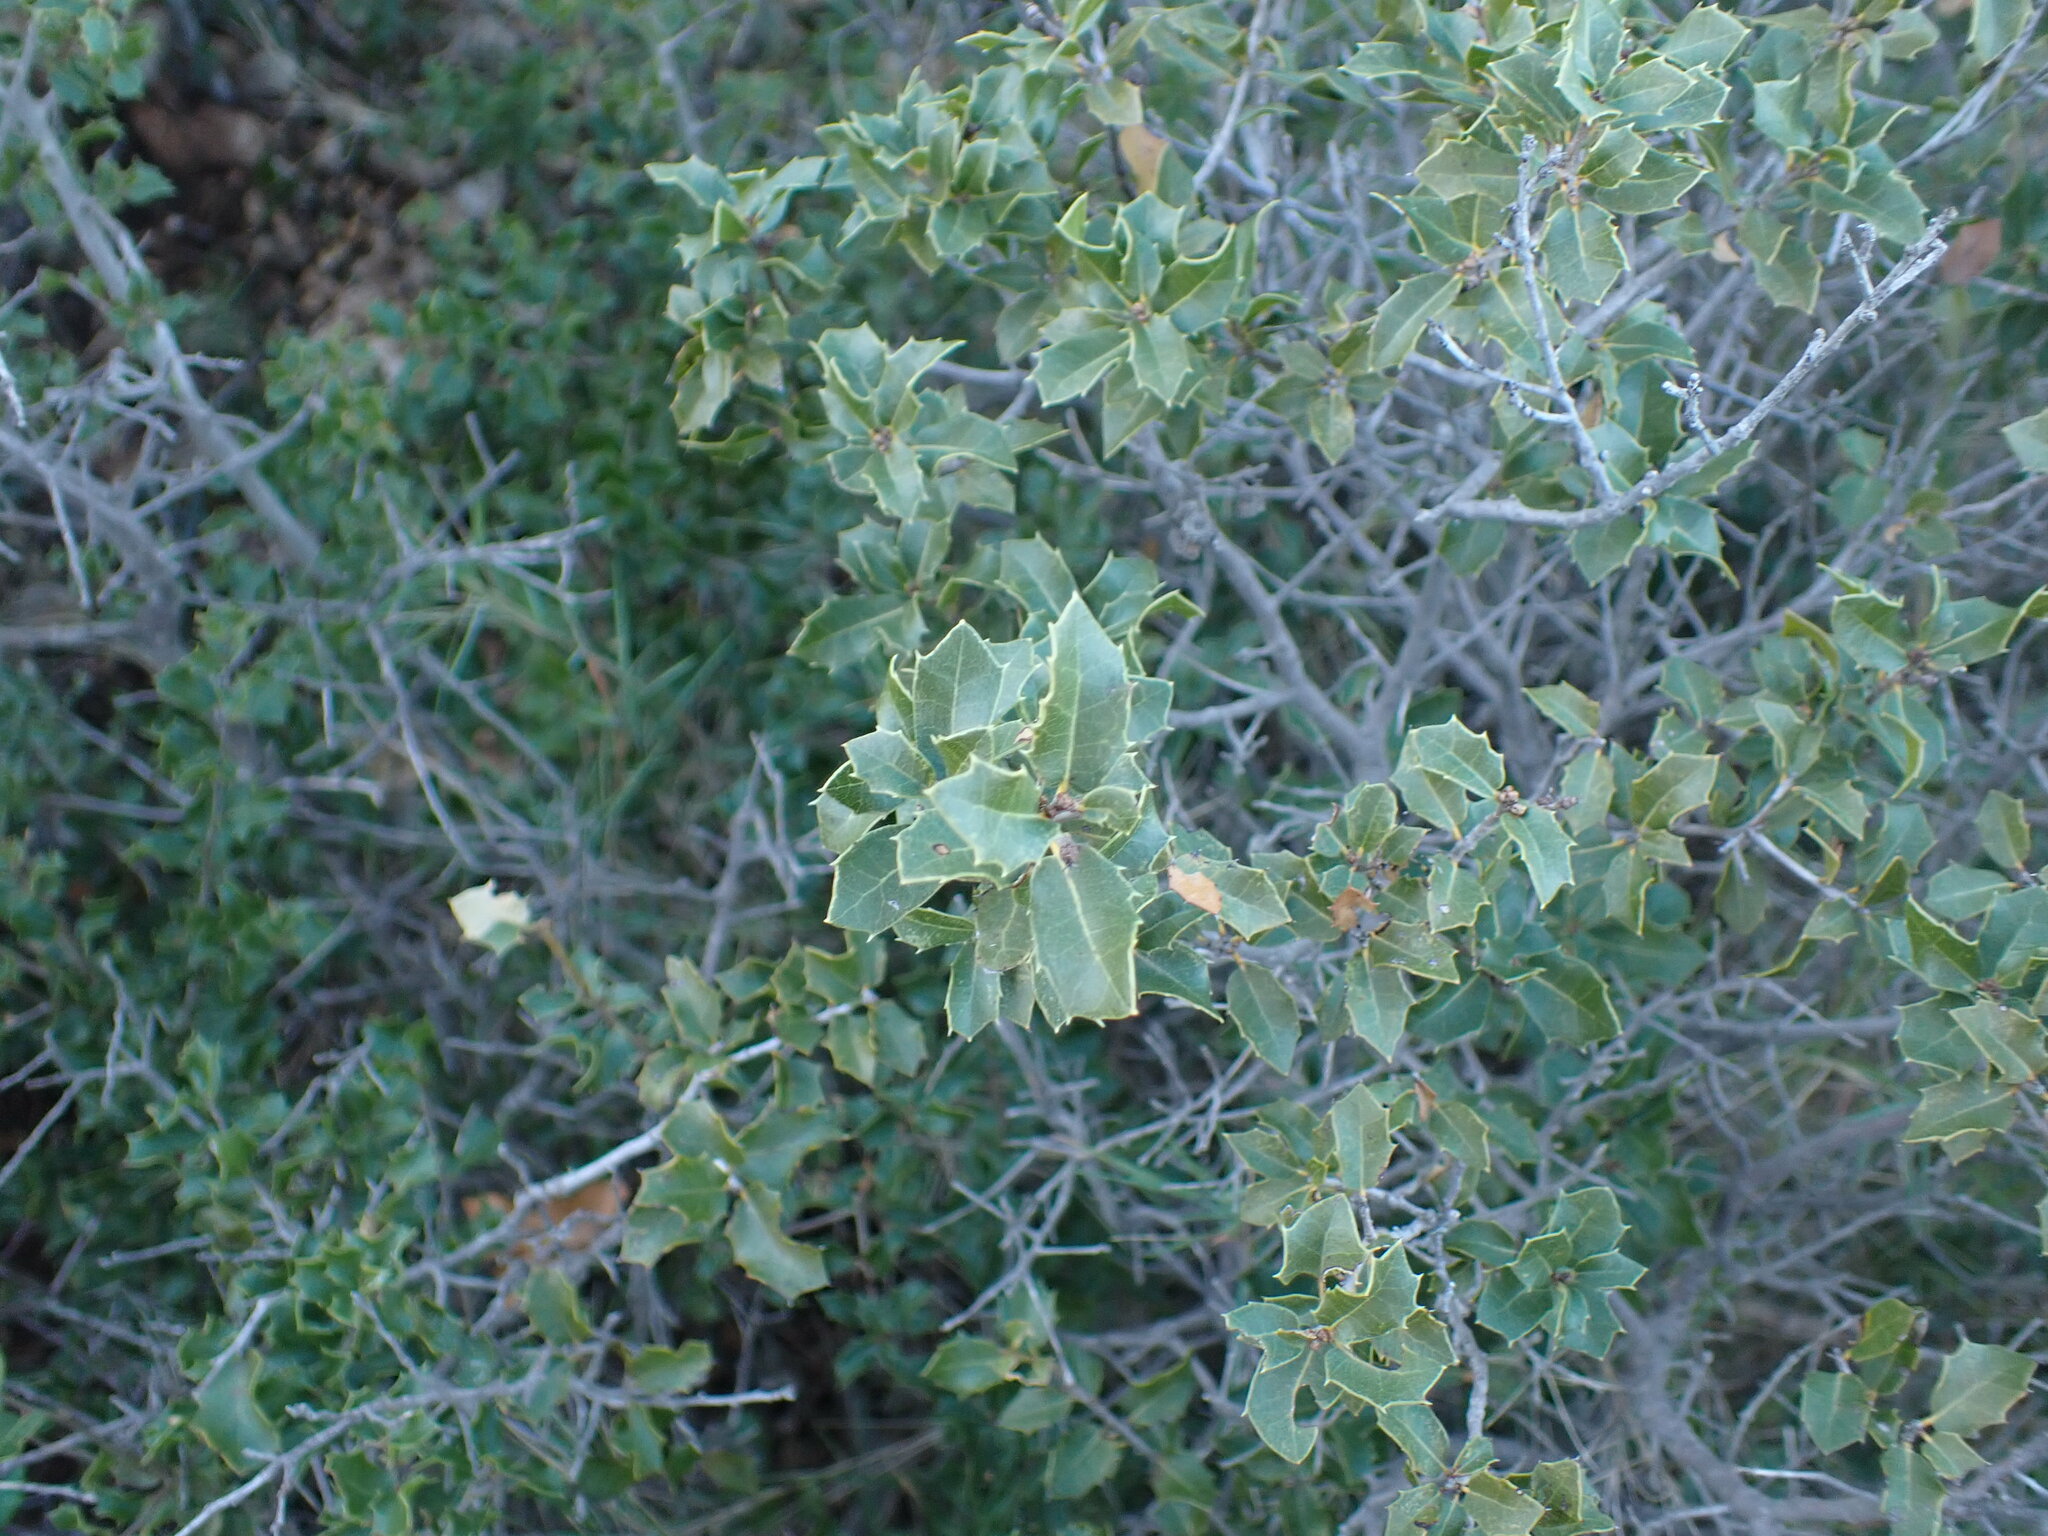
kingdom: Plantae
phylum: Tracheophyta
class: Magnoliopsida
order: Fagales
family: Fagaceae
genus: Quercus
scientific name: Quercus coccifera
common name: Kermes oak
